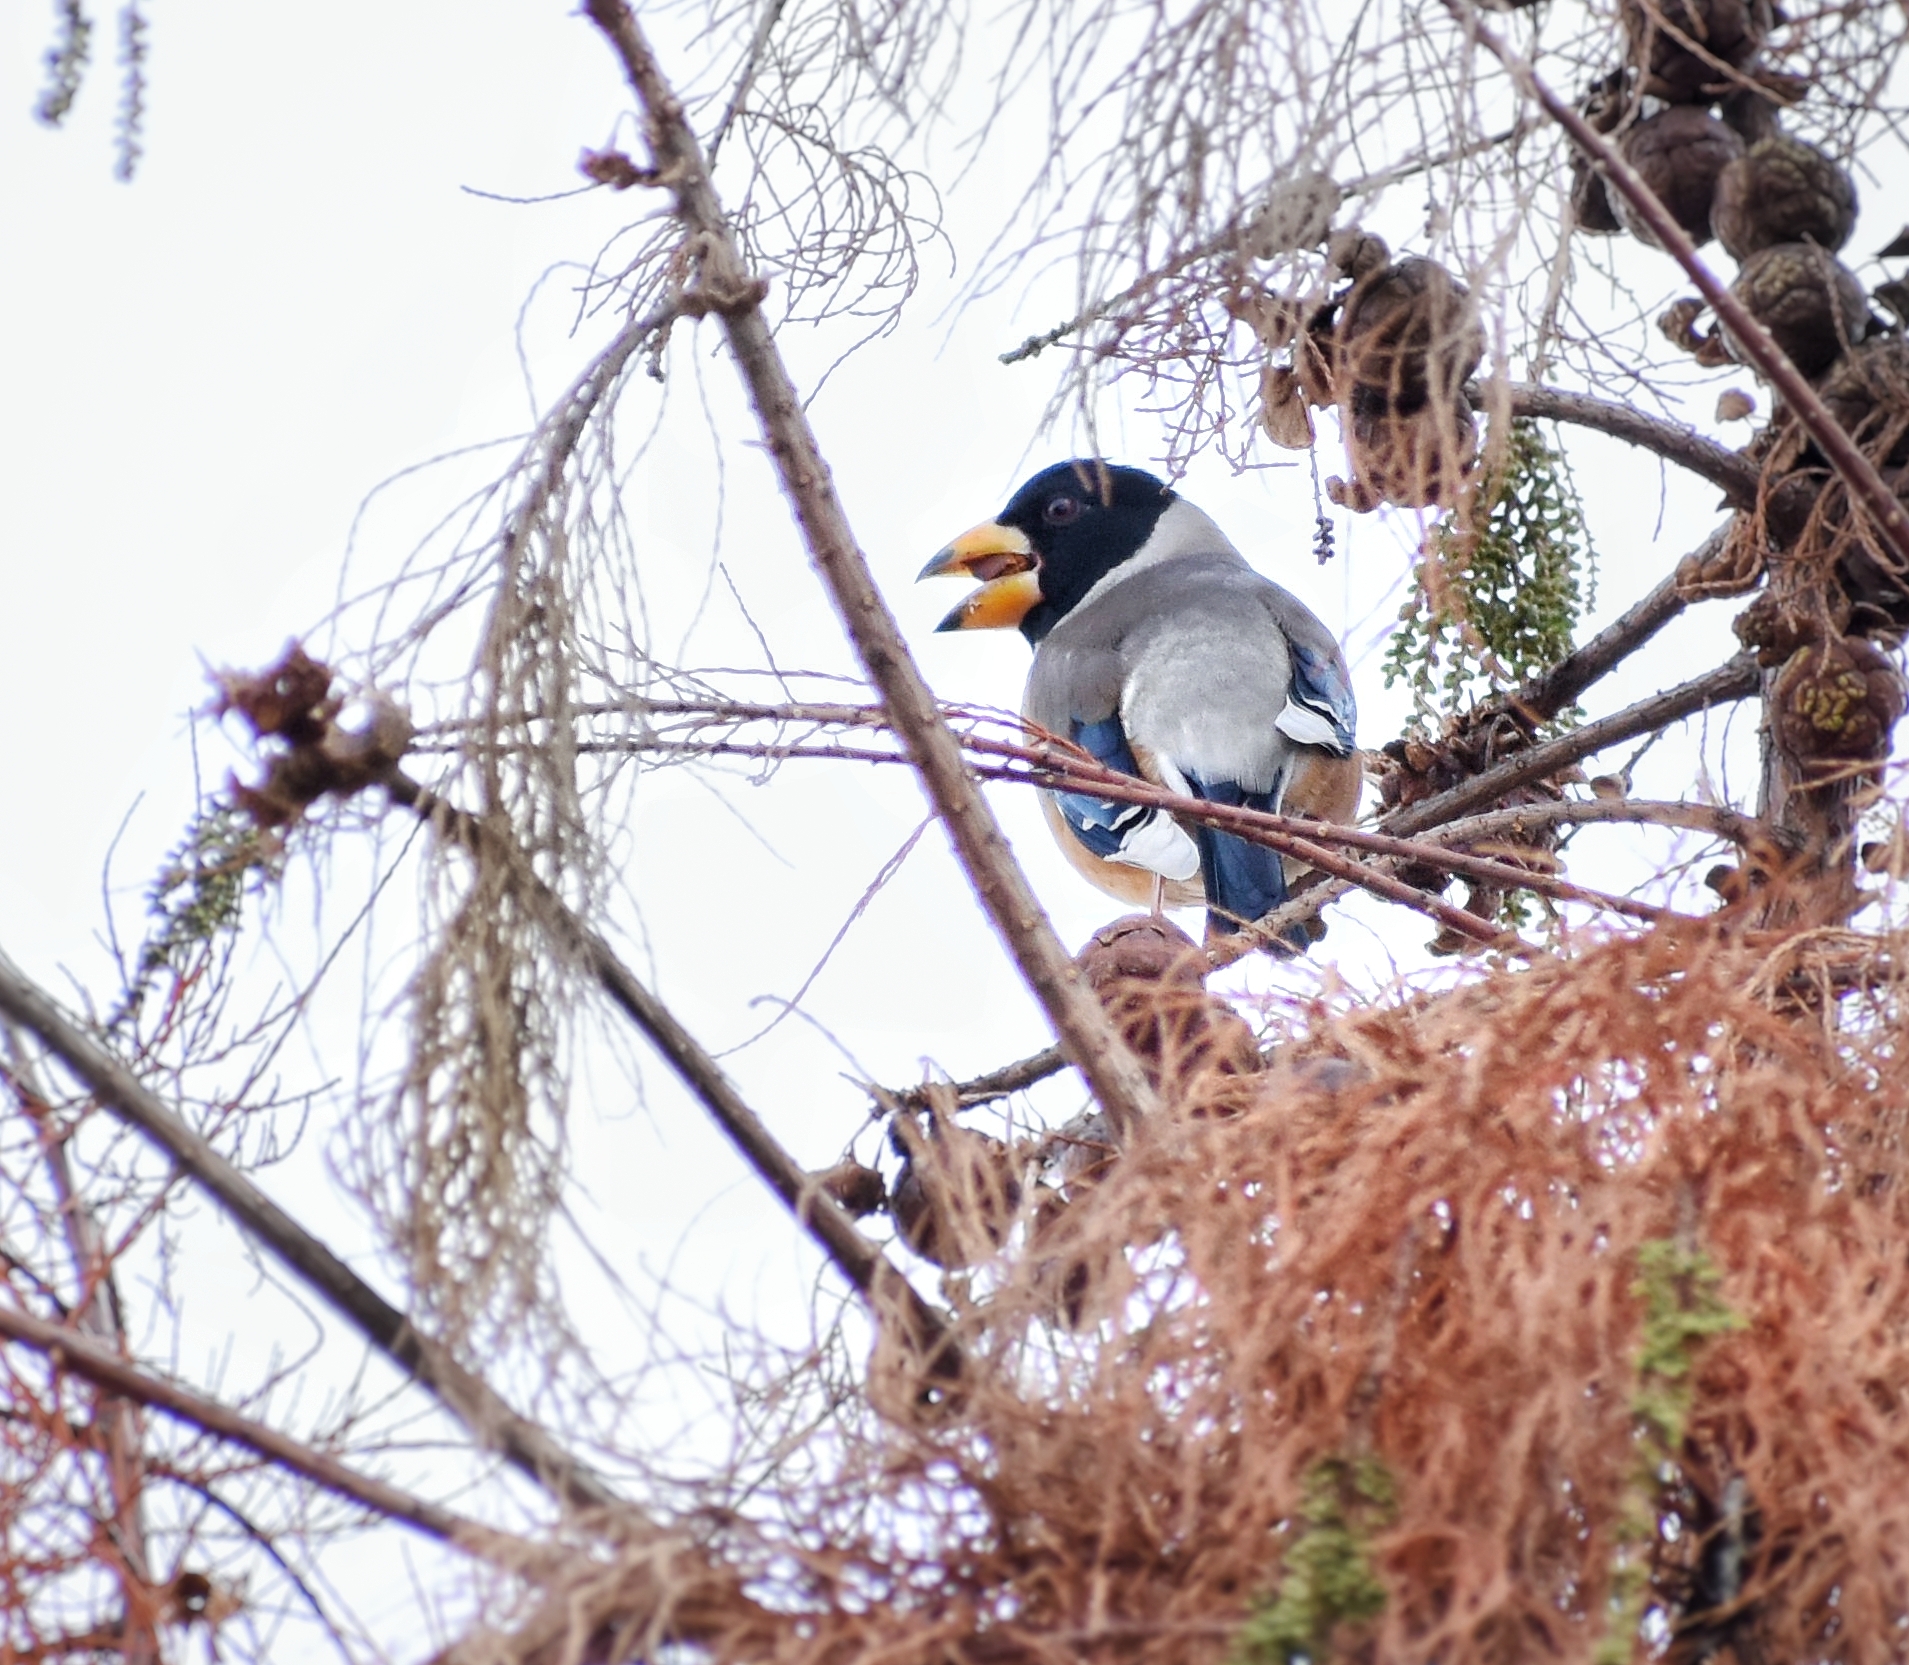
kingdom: Animalia
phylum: Chordata
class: Aves
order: Passeriformes
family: Fringillidae
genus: Eophona
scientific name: Eophona migratoria
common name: Yellow-billed grosbeak
